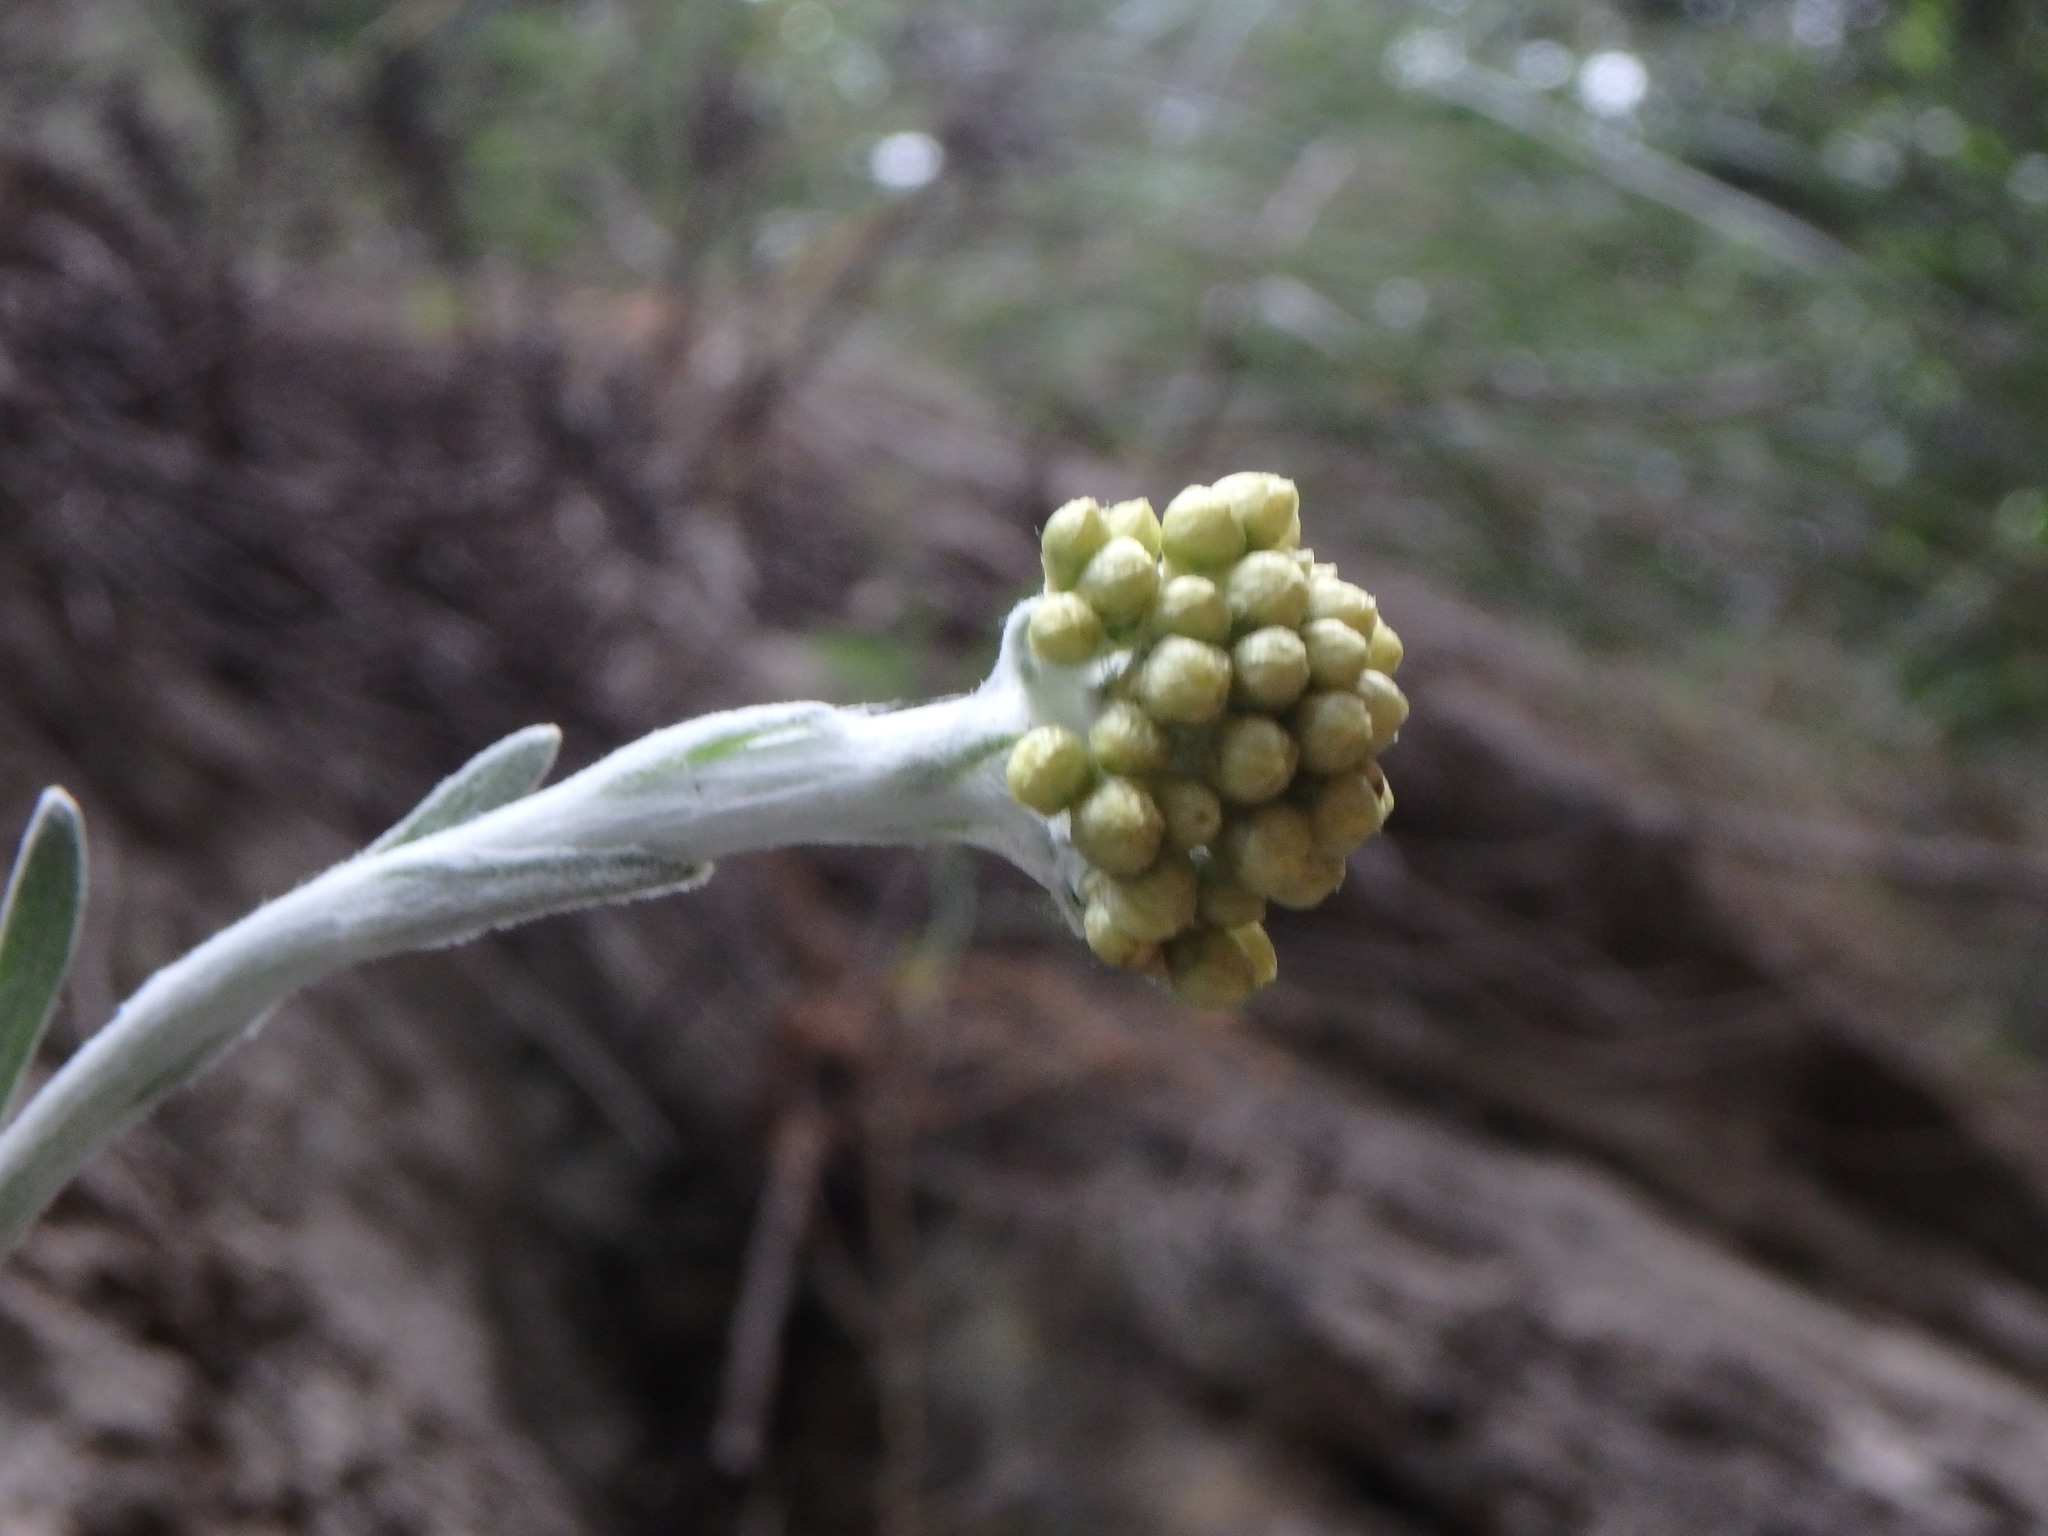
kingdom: Plantae
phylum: Tracheophyta
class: Magnoliopsida
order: Asterales
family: Asteraceae
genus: Helichrysum
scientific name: Helichrysum crassifolium
